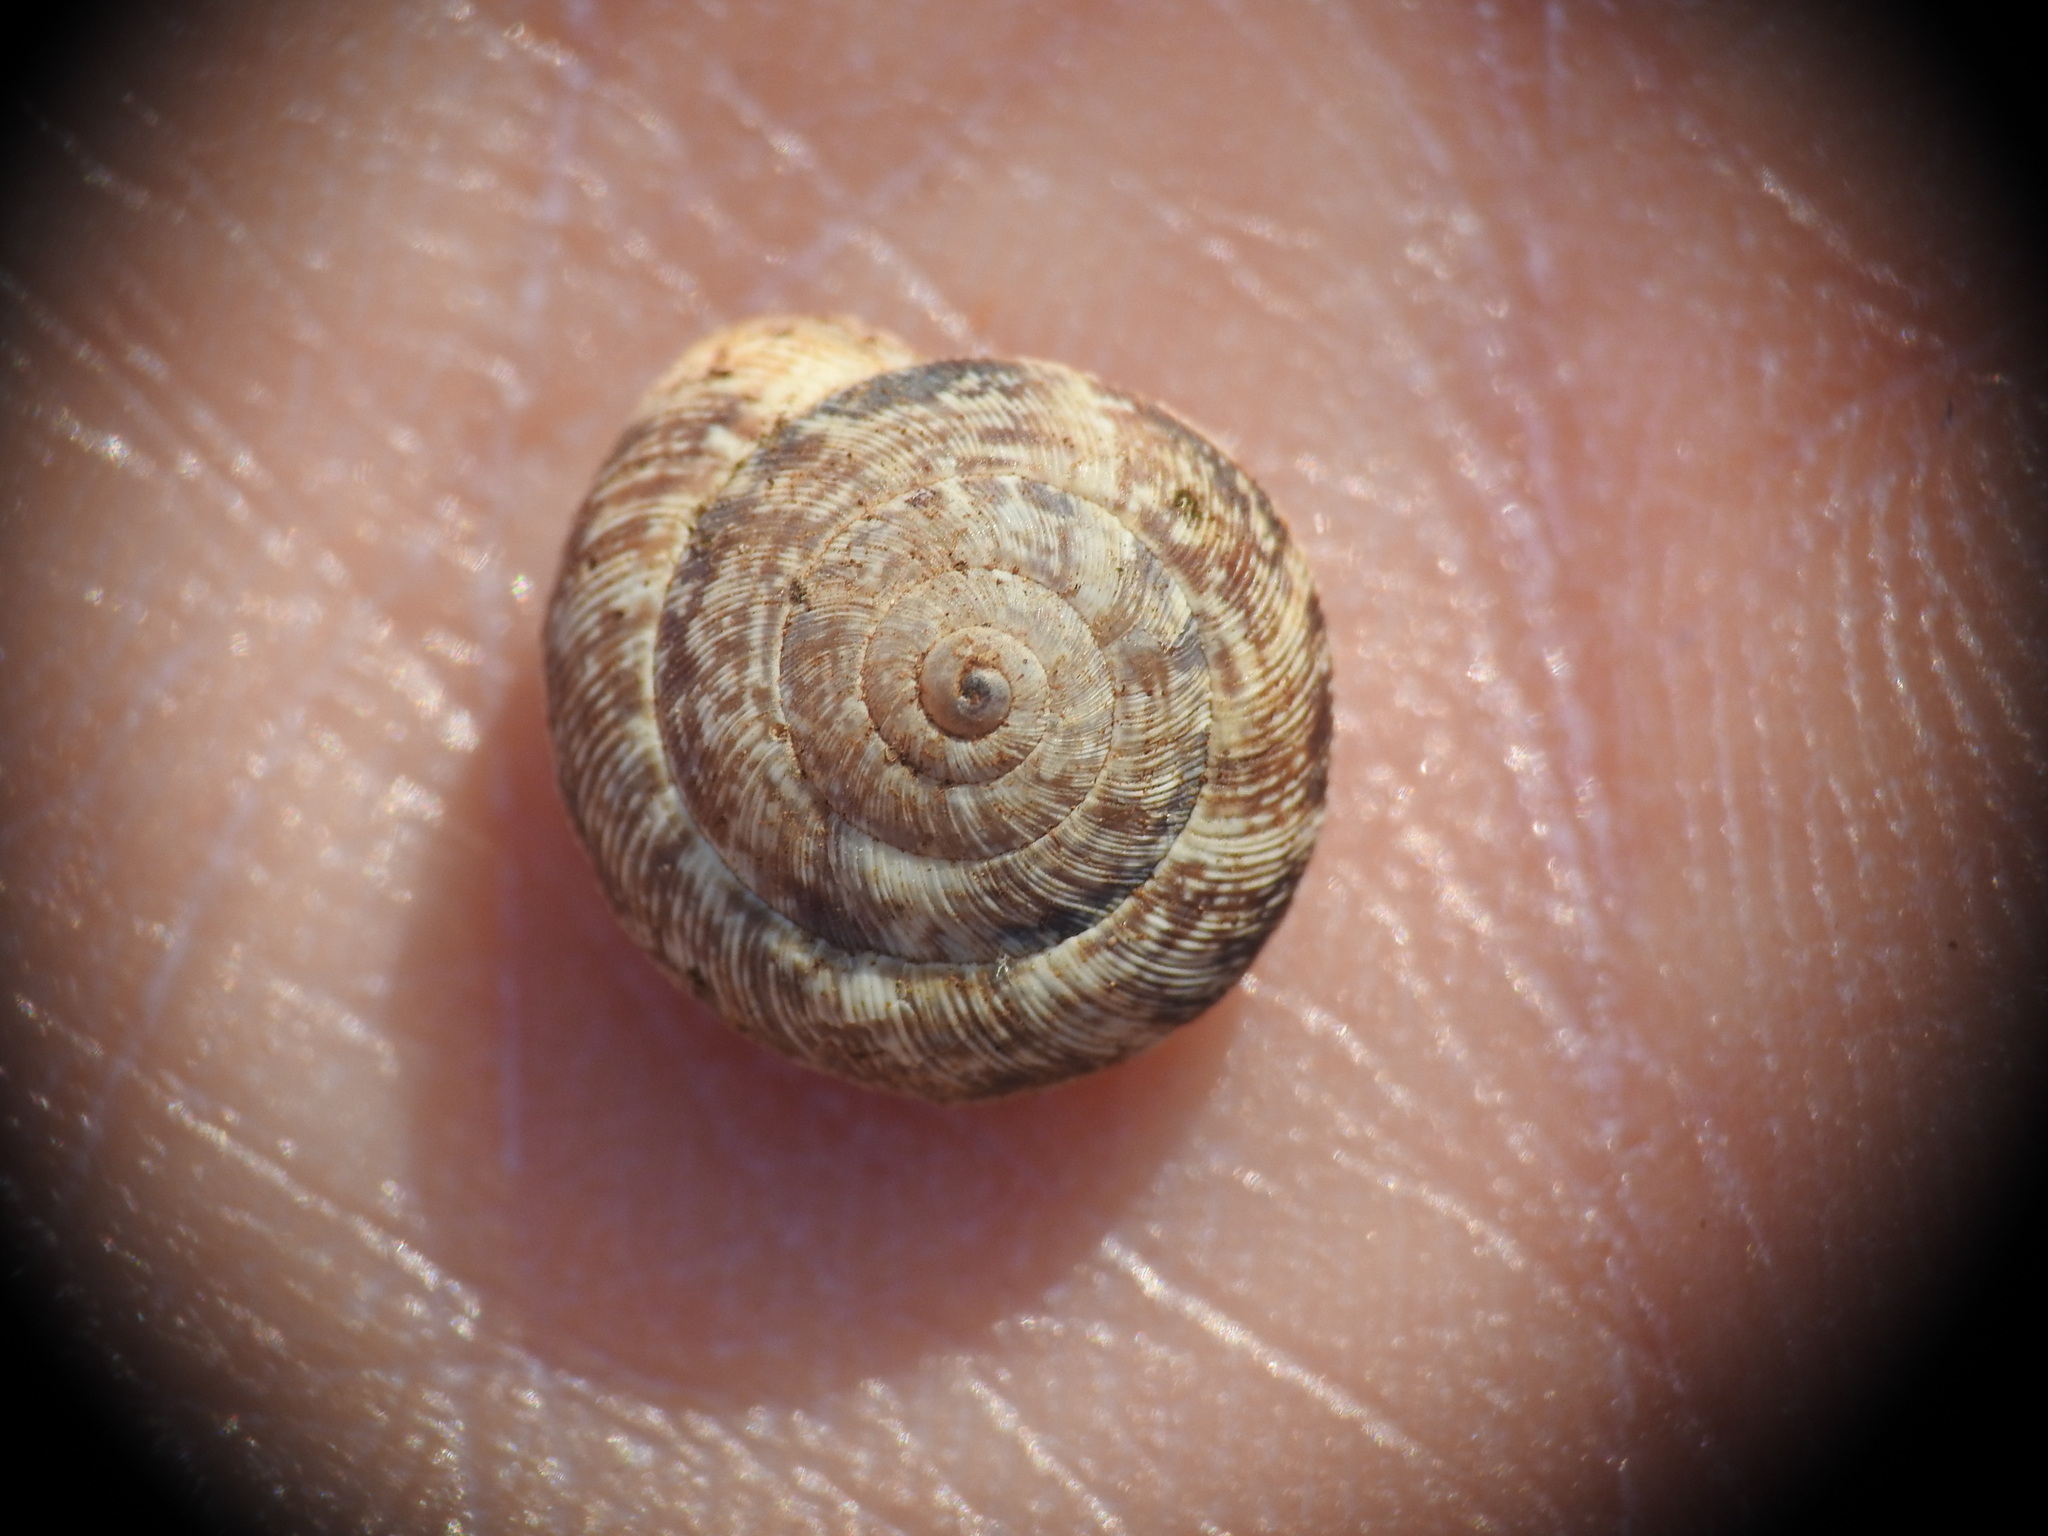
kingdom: Animalia
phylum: Mollusca
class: Gastropoda
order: Stylommatophora
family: Geomitridae
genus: Xerocrassa
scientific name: Xerocrassa siderensis
